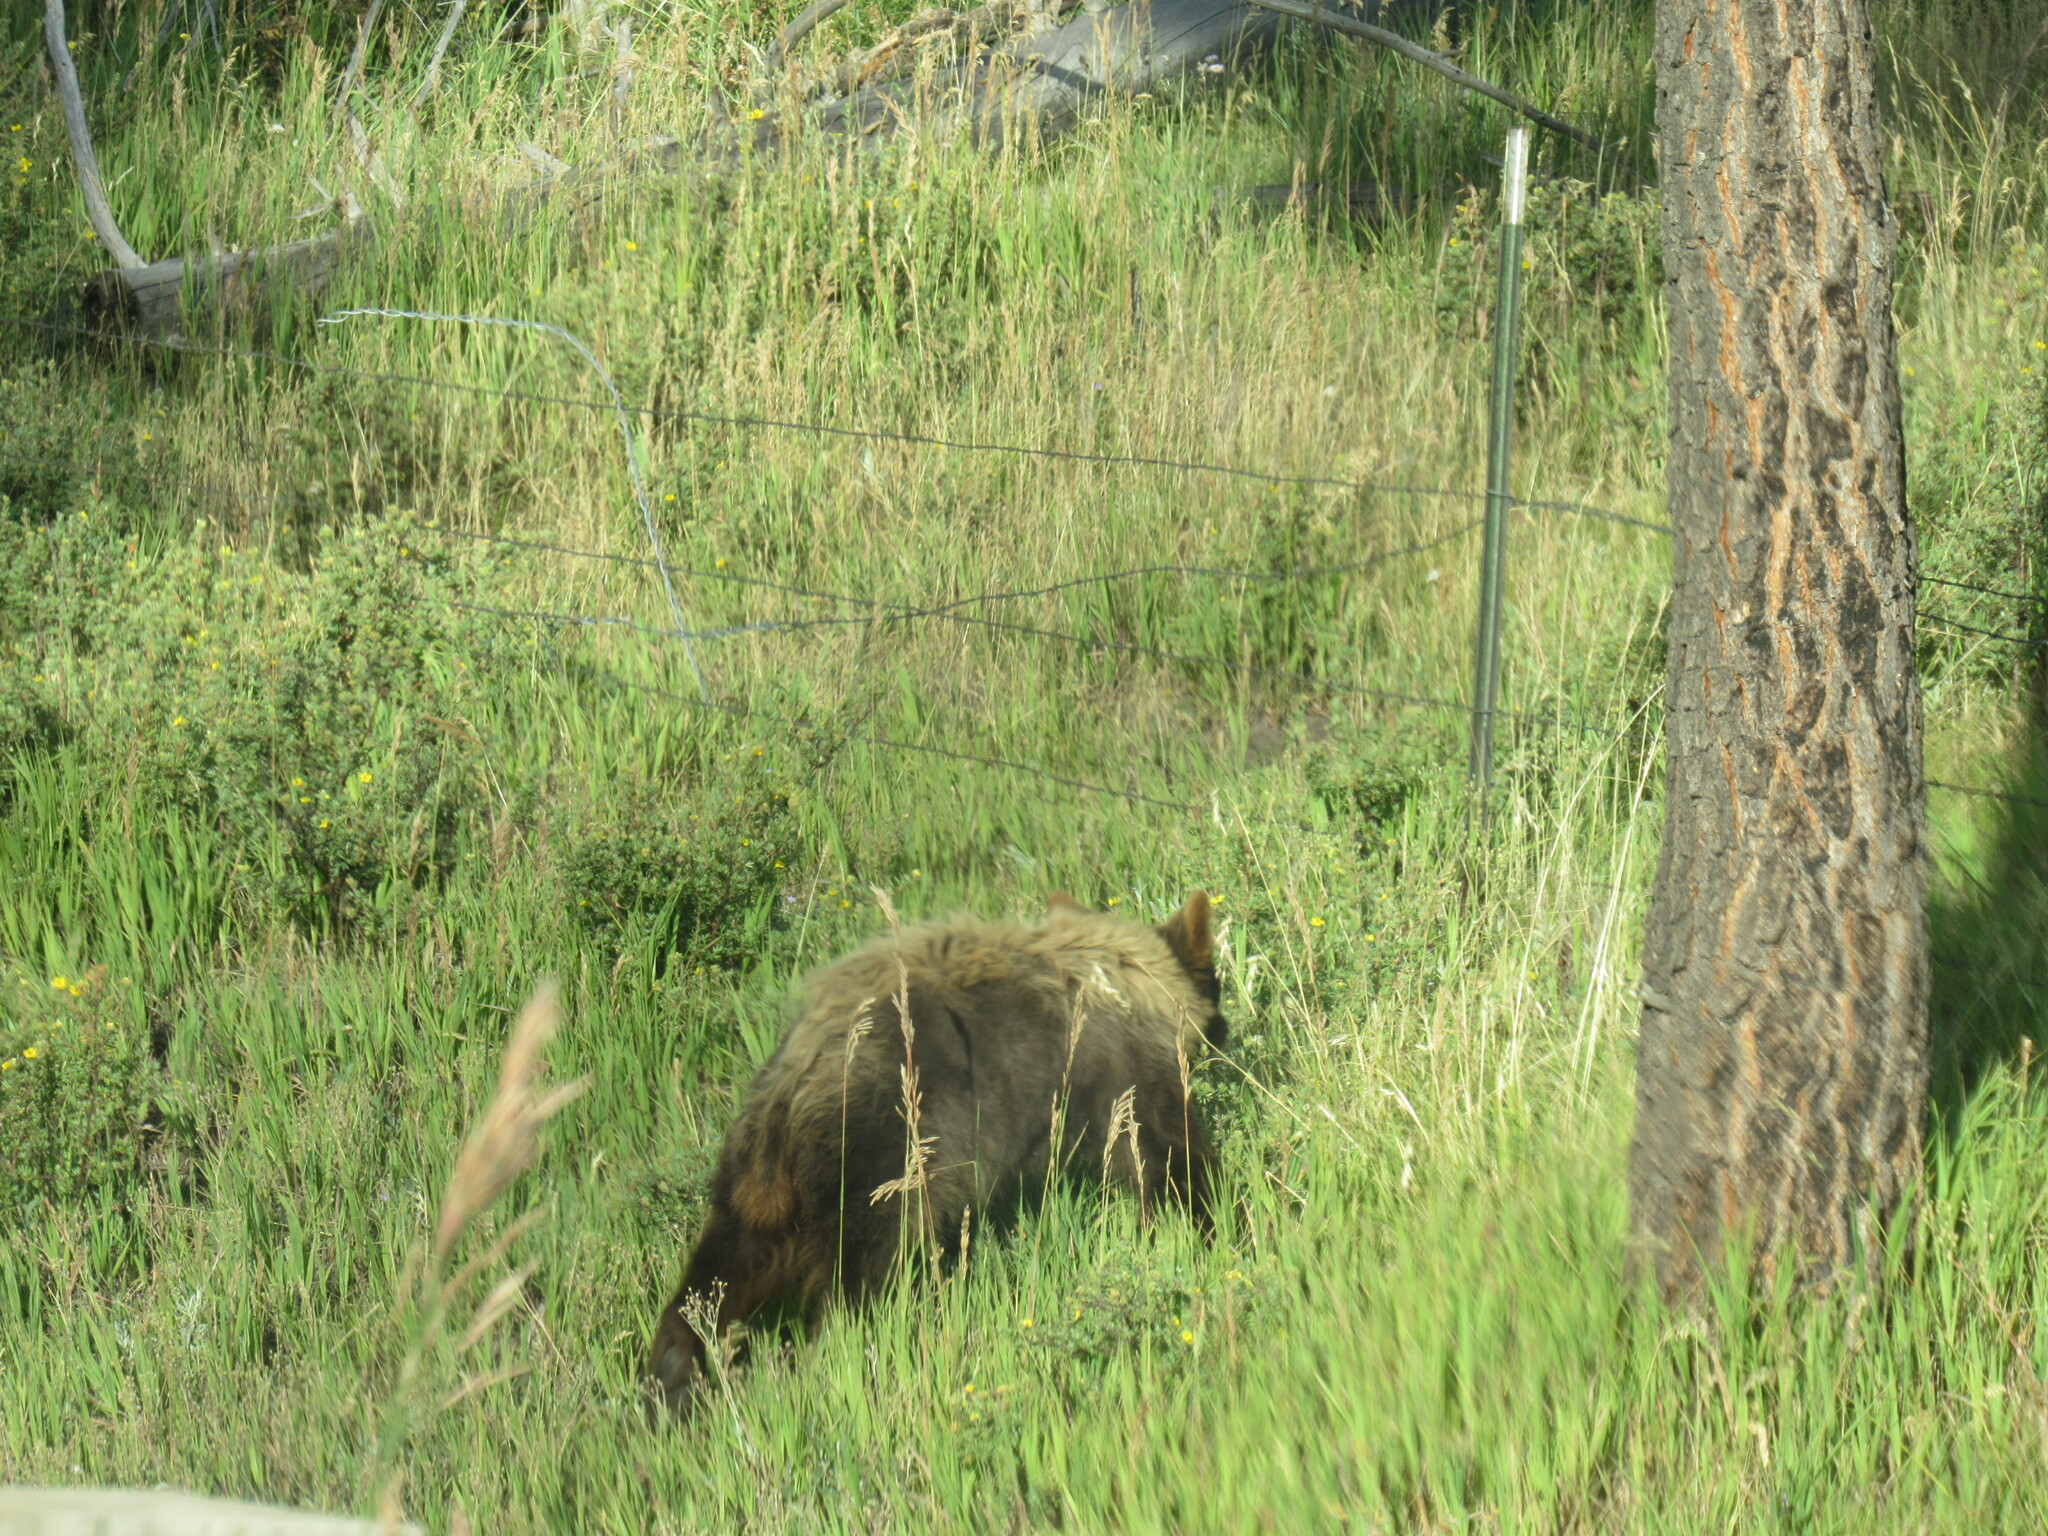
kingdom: Animalia
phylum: Chordata
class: Mammalia
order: Carnivora
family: Ursidae
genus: Ursus
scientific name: Ursus americanus
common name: American black bear
